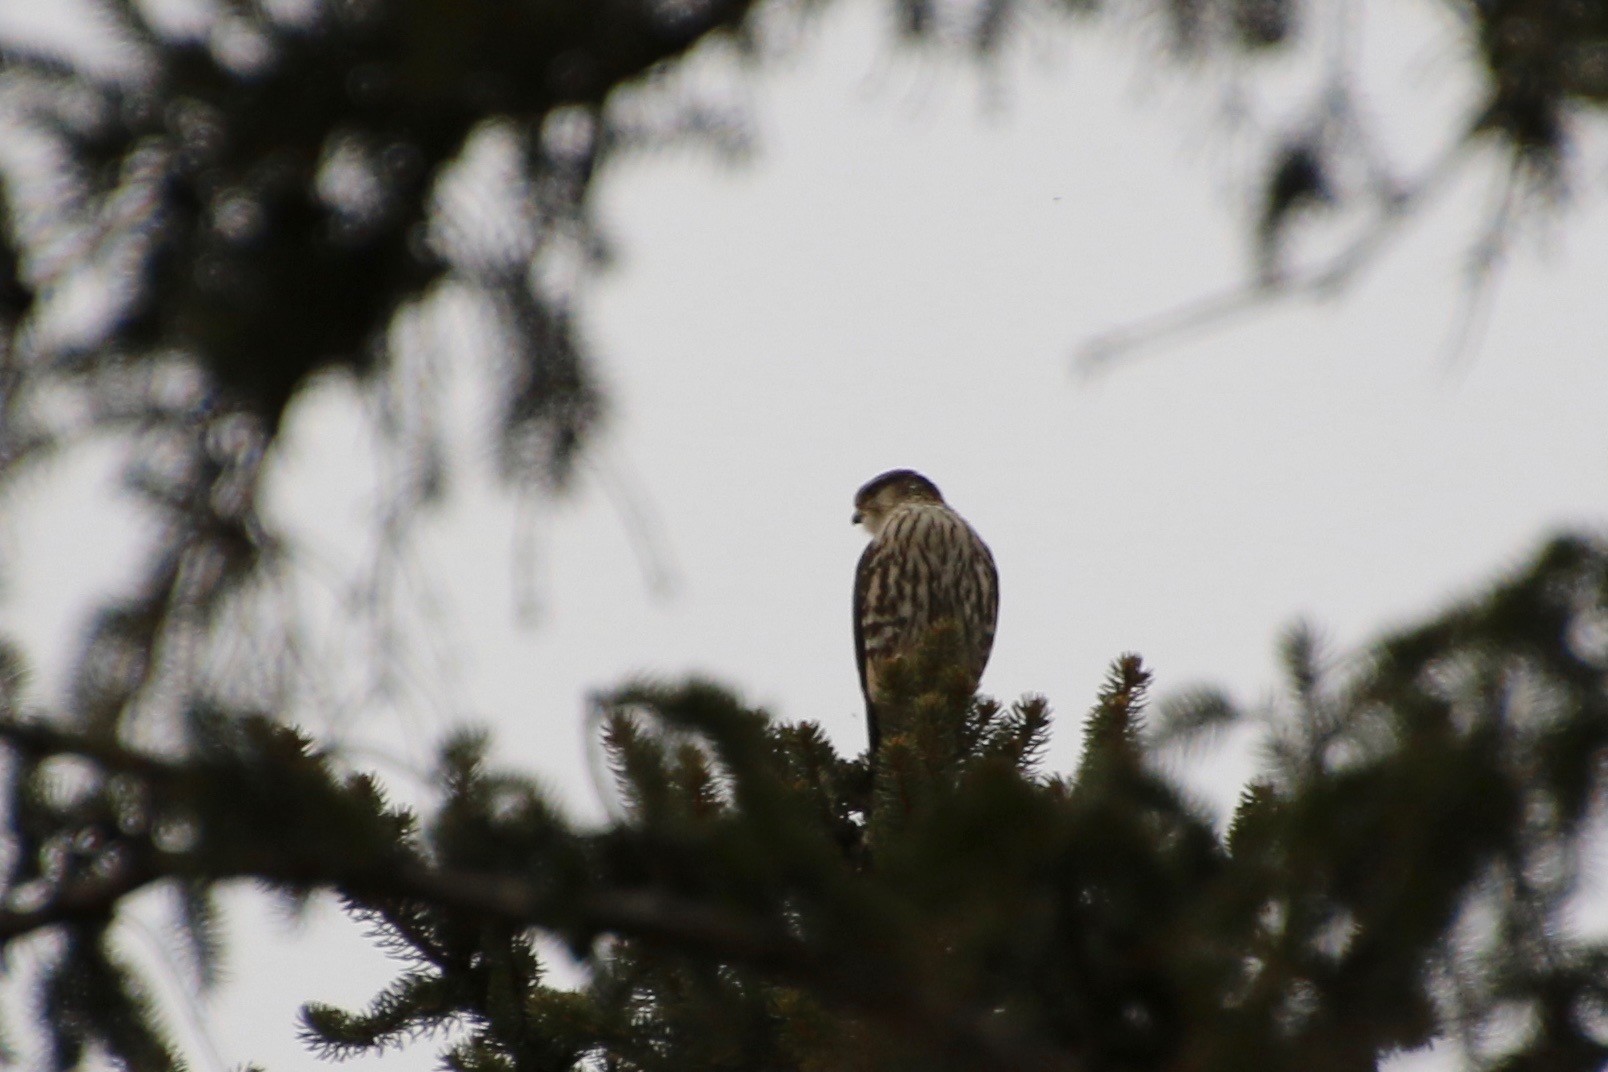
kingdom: Animalia
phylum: Chordata
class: Aves
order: Falconiformes
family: Falconidae
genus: Falco
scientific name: Falco columbarius
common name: Merlin
